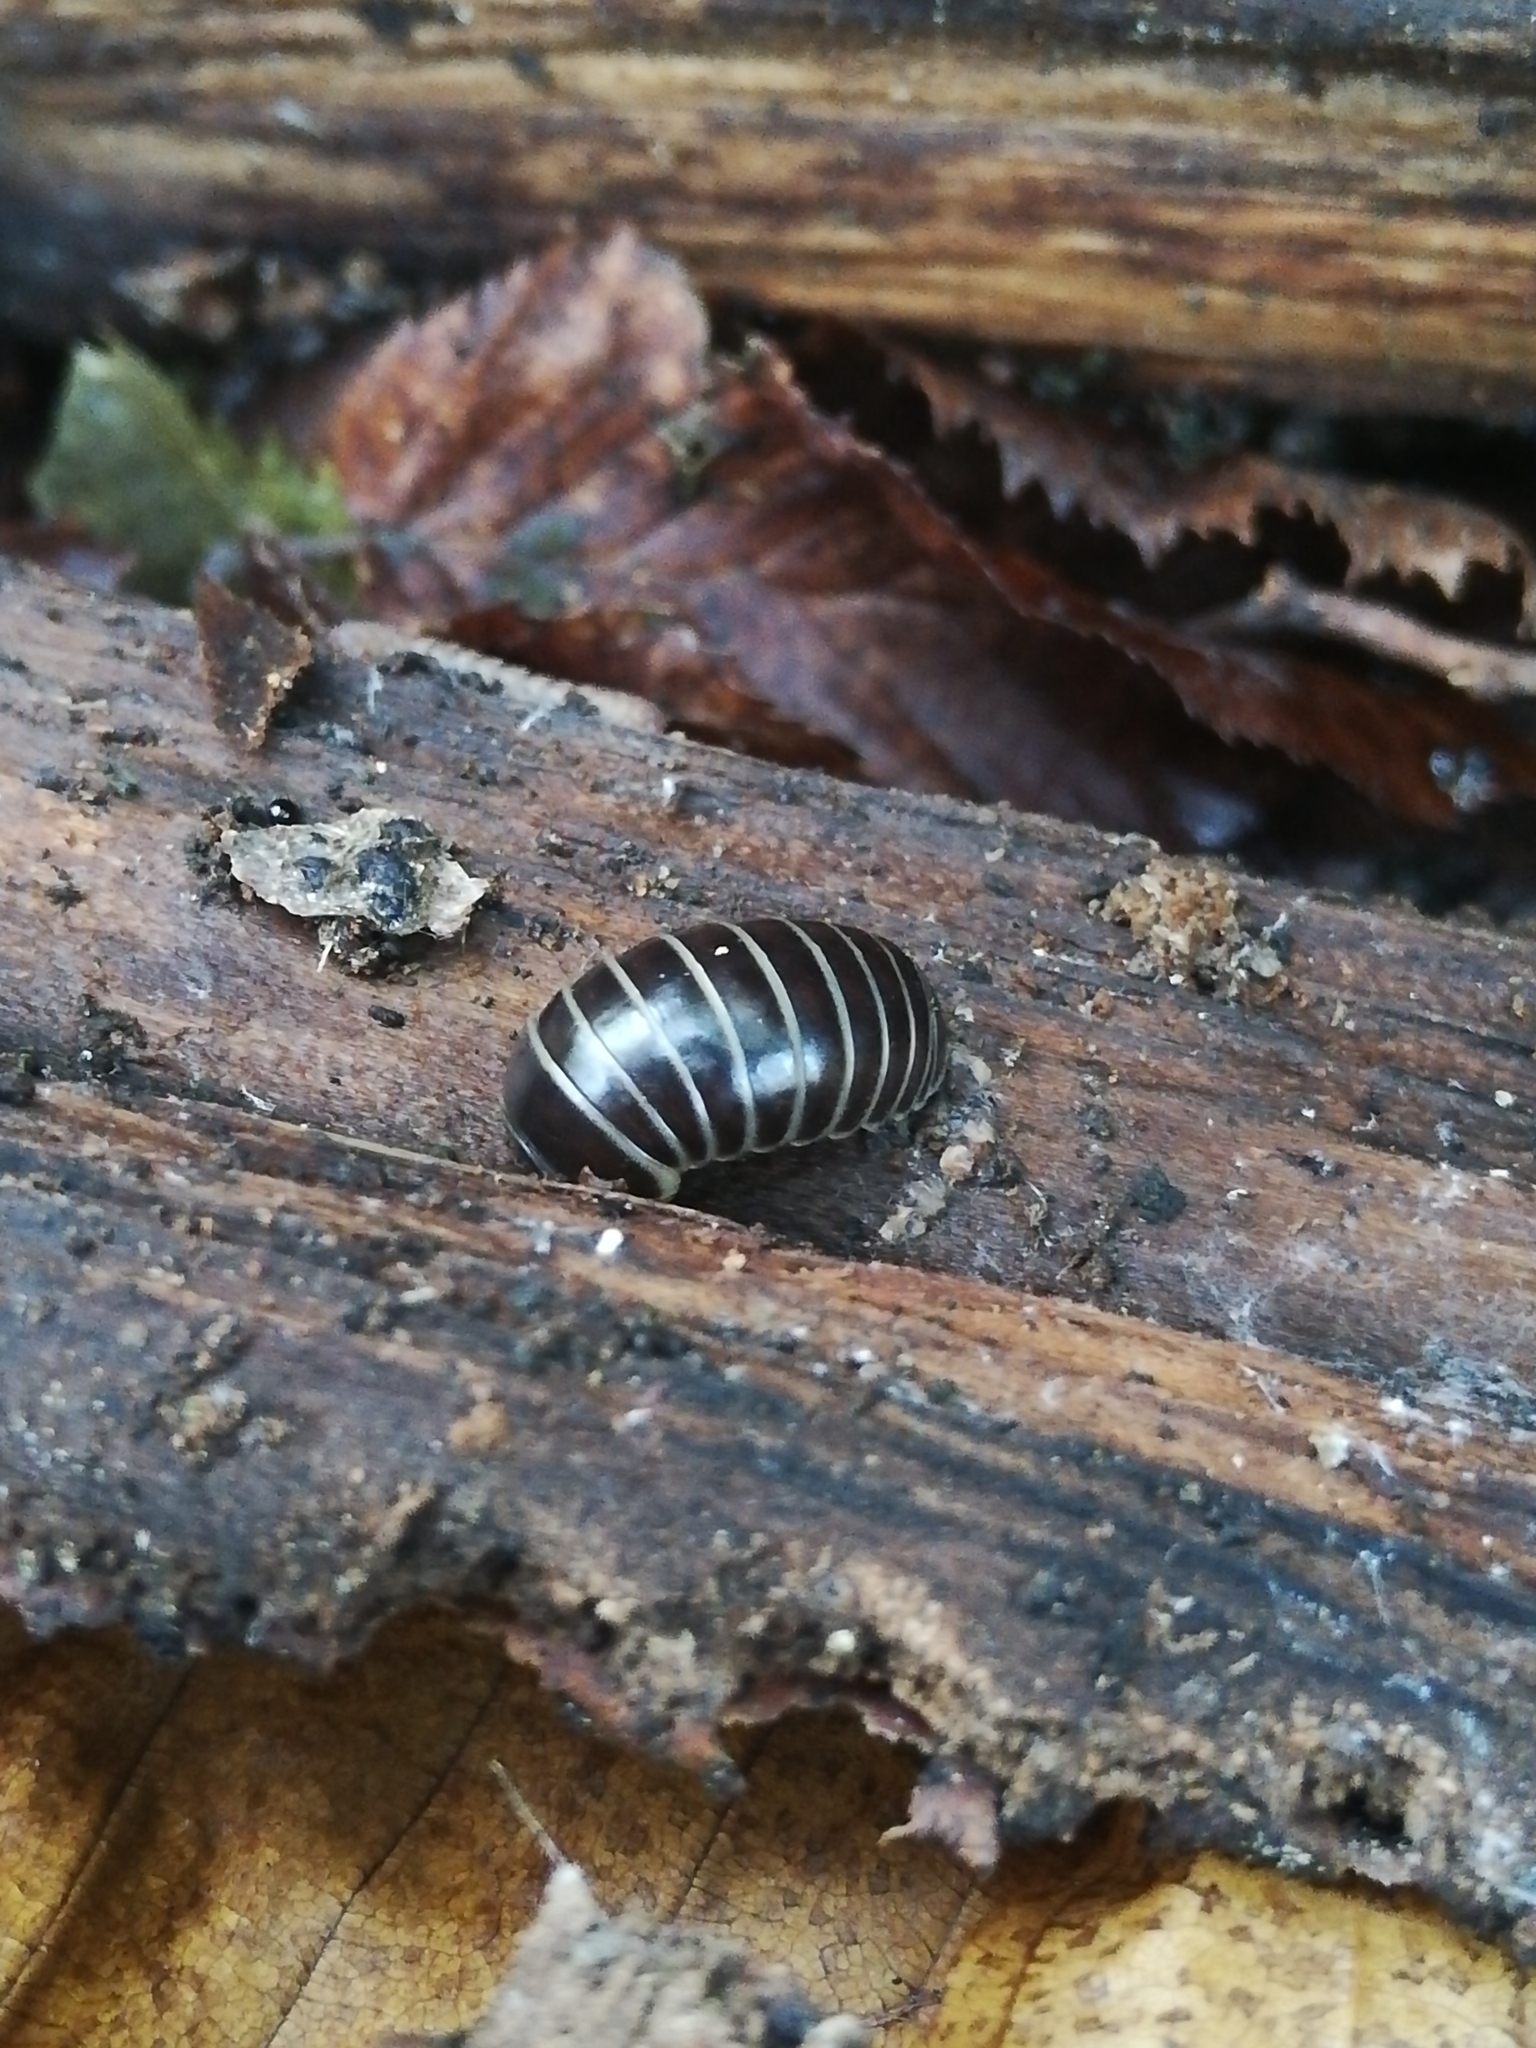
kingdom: Animalia
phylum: Arthropoda
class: Diplopoda
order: Glomerida
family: Glomeridae
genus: Glomeris
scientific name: Glomeris marginata
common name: Bordered pill millipede
